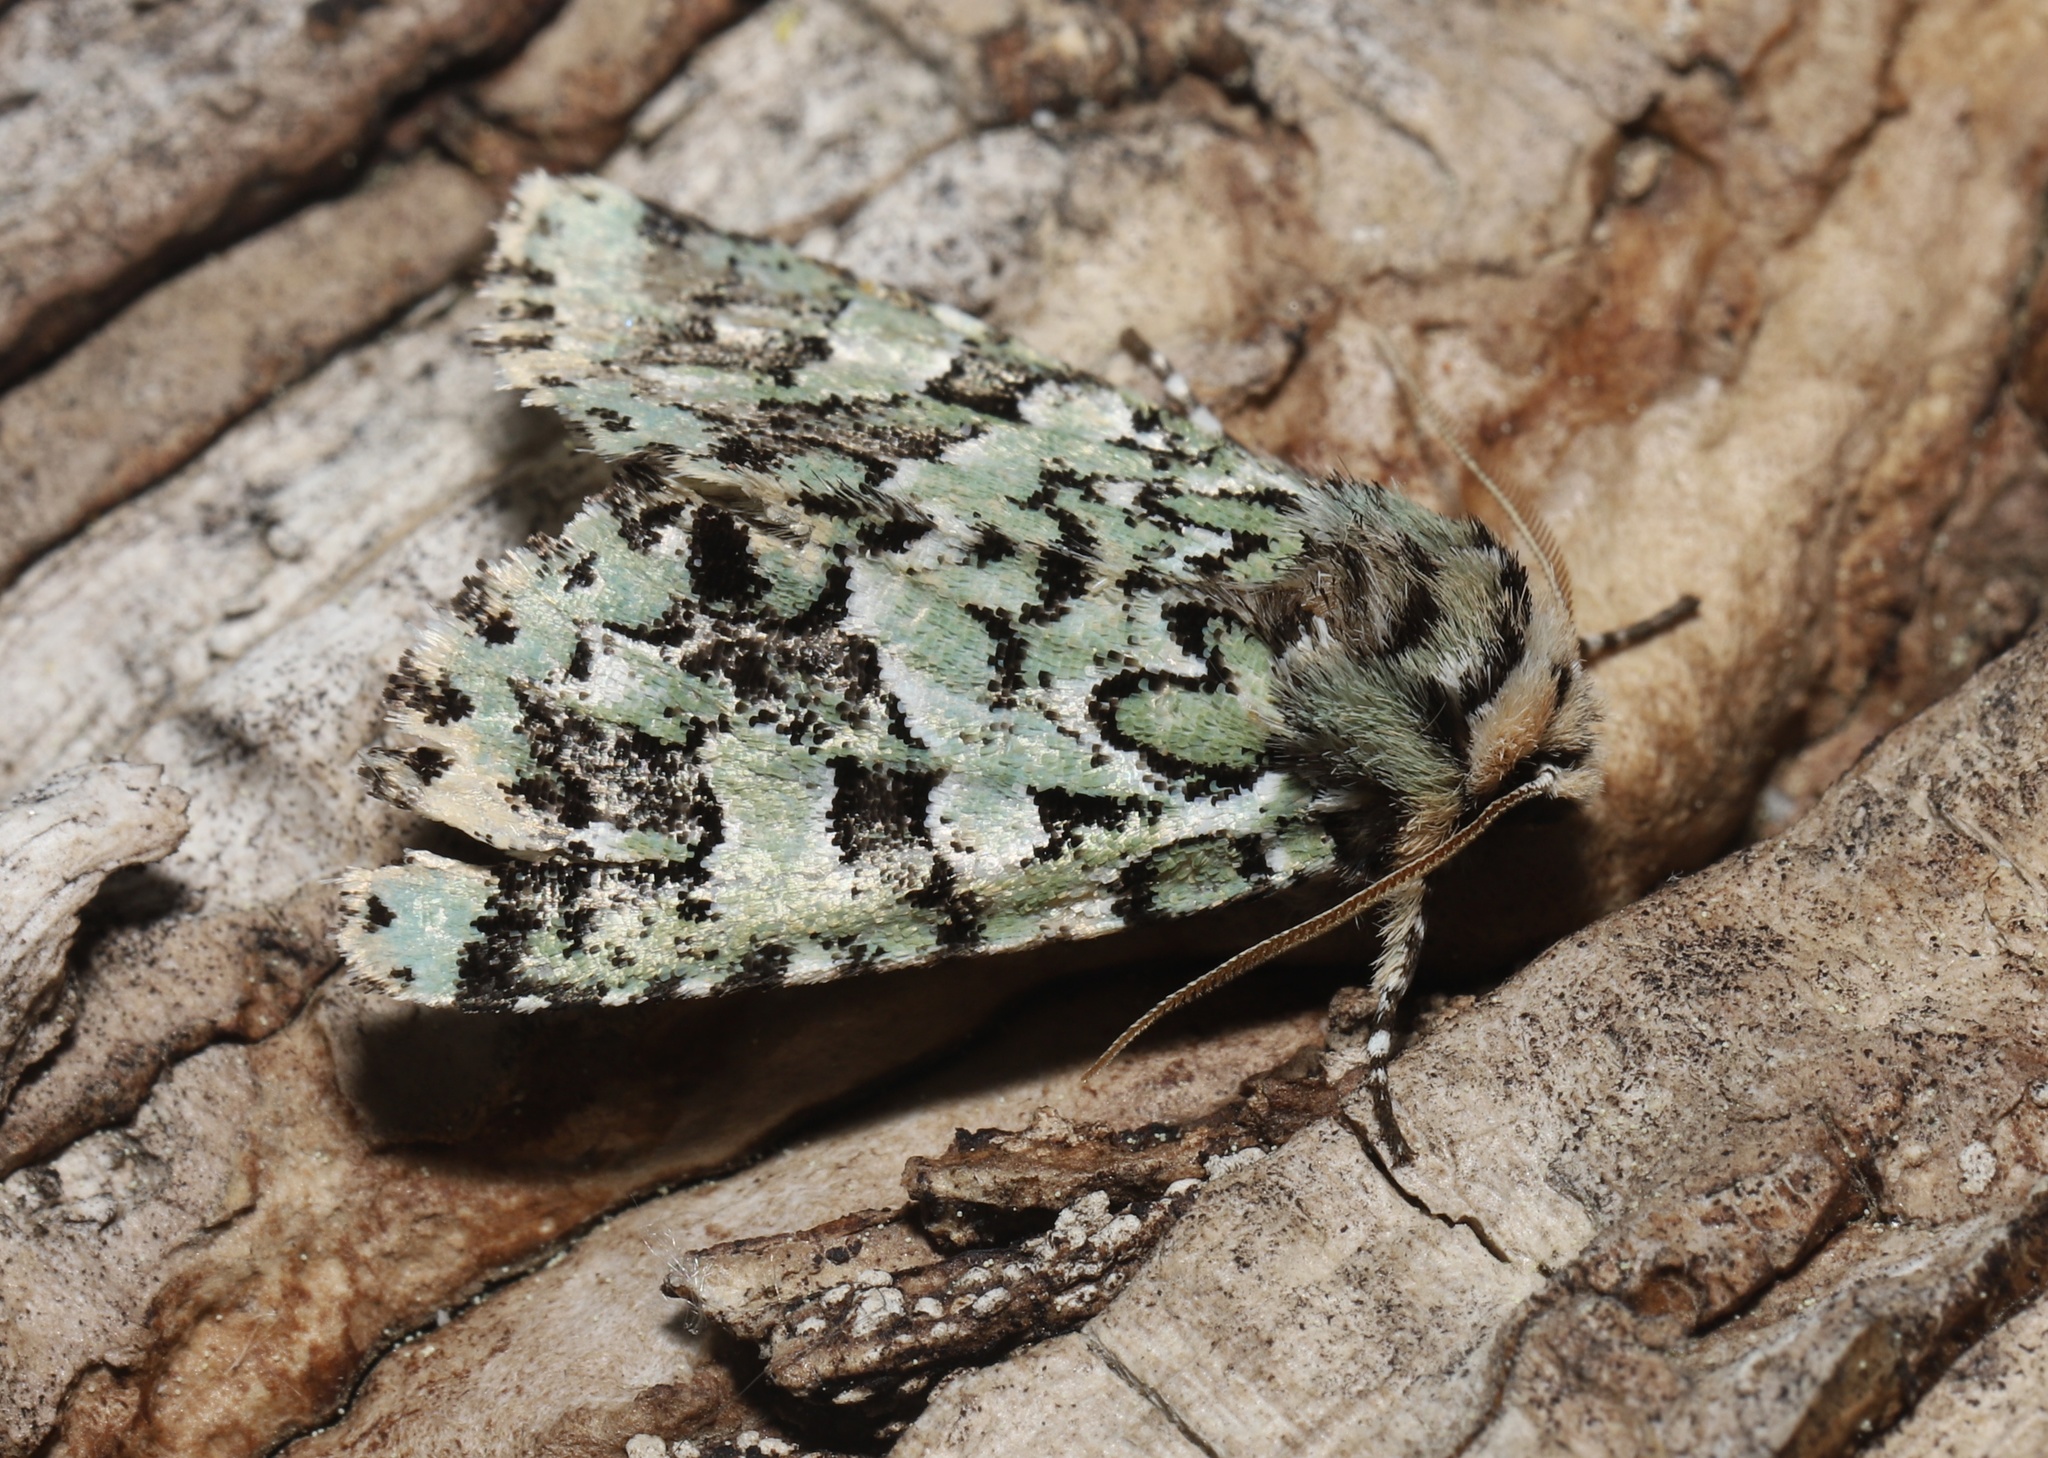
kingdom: Animalia
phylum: Arthropoda
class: Insecta
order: Lepidoptera
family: Noctuidae
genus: Feralia
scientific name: Feralia comstocki
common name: Comstock's sallow
